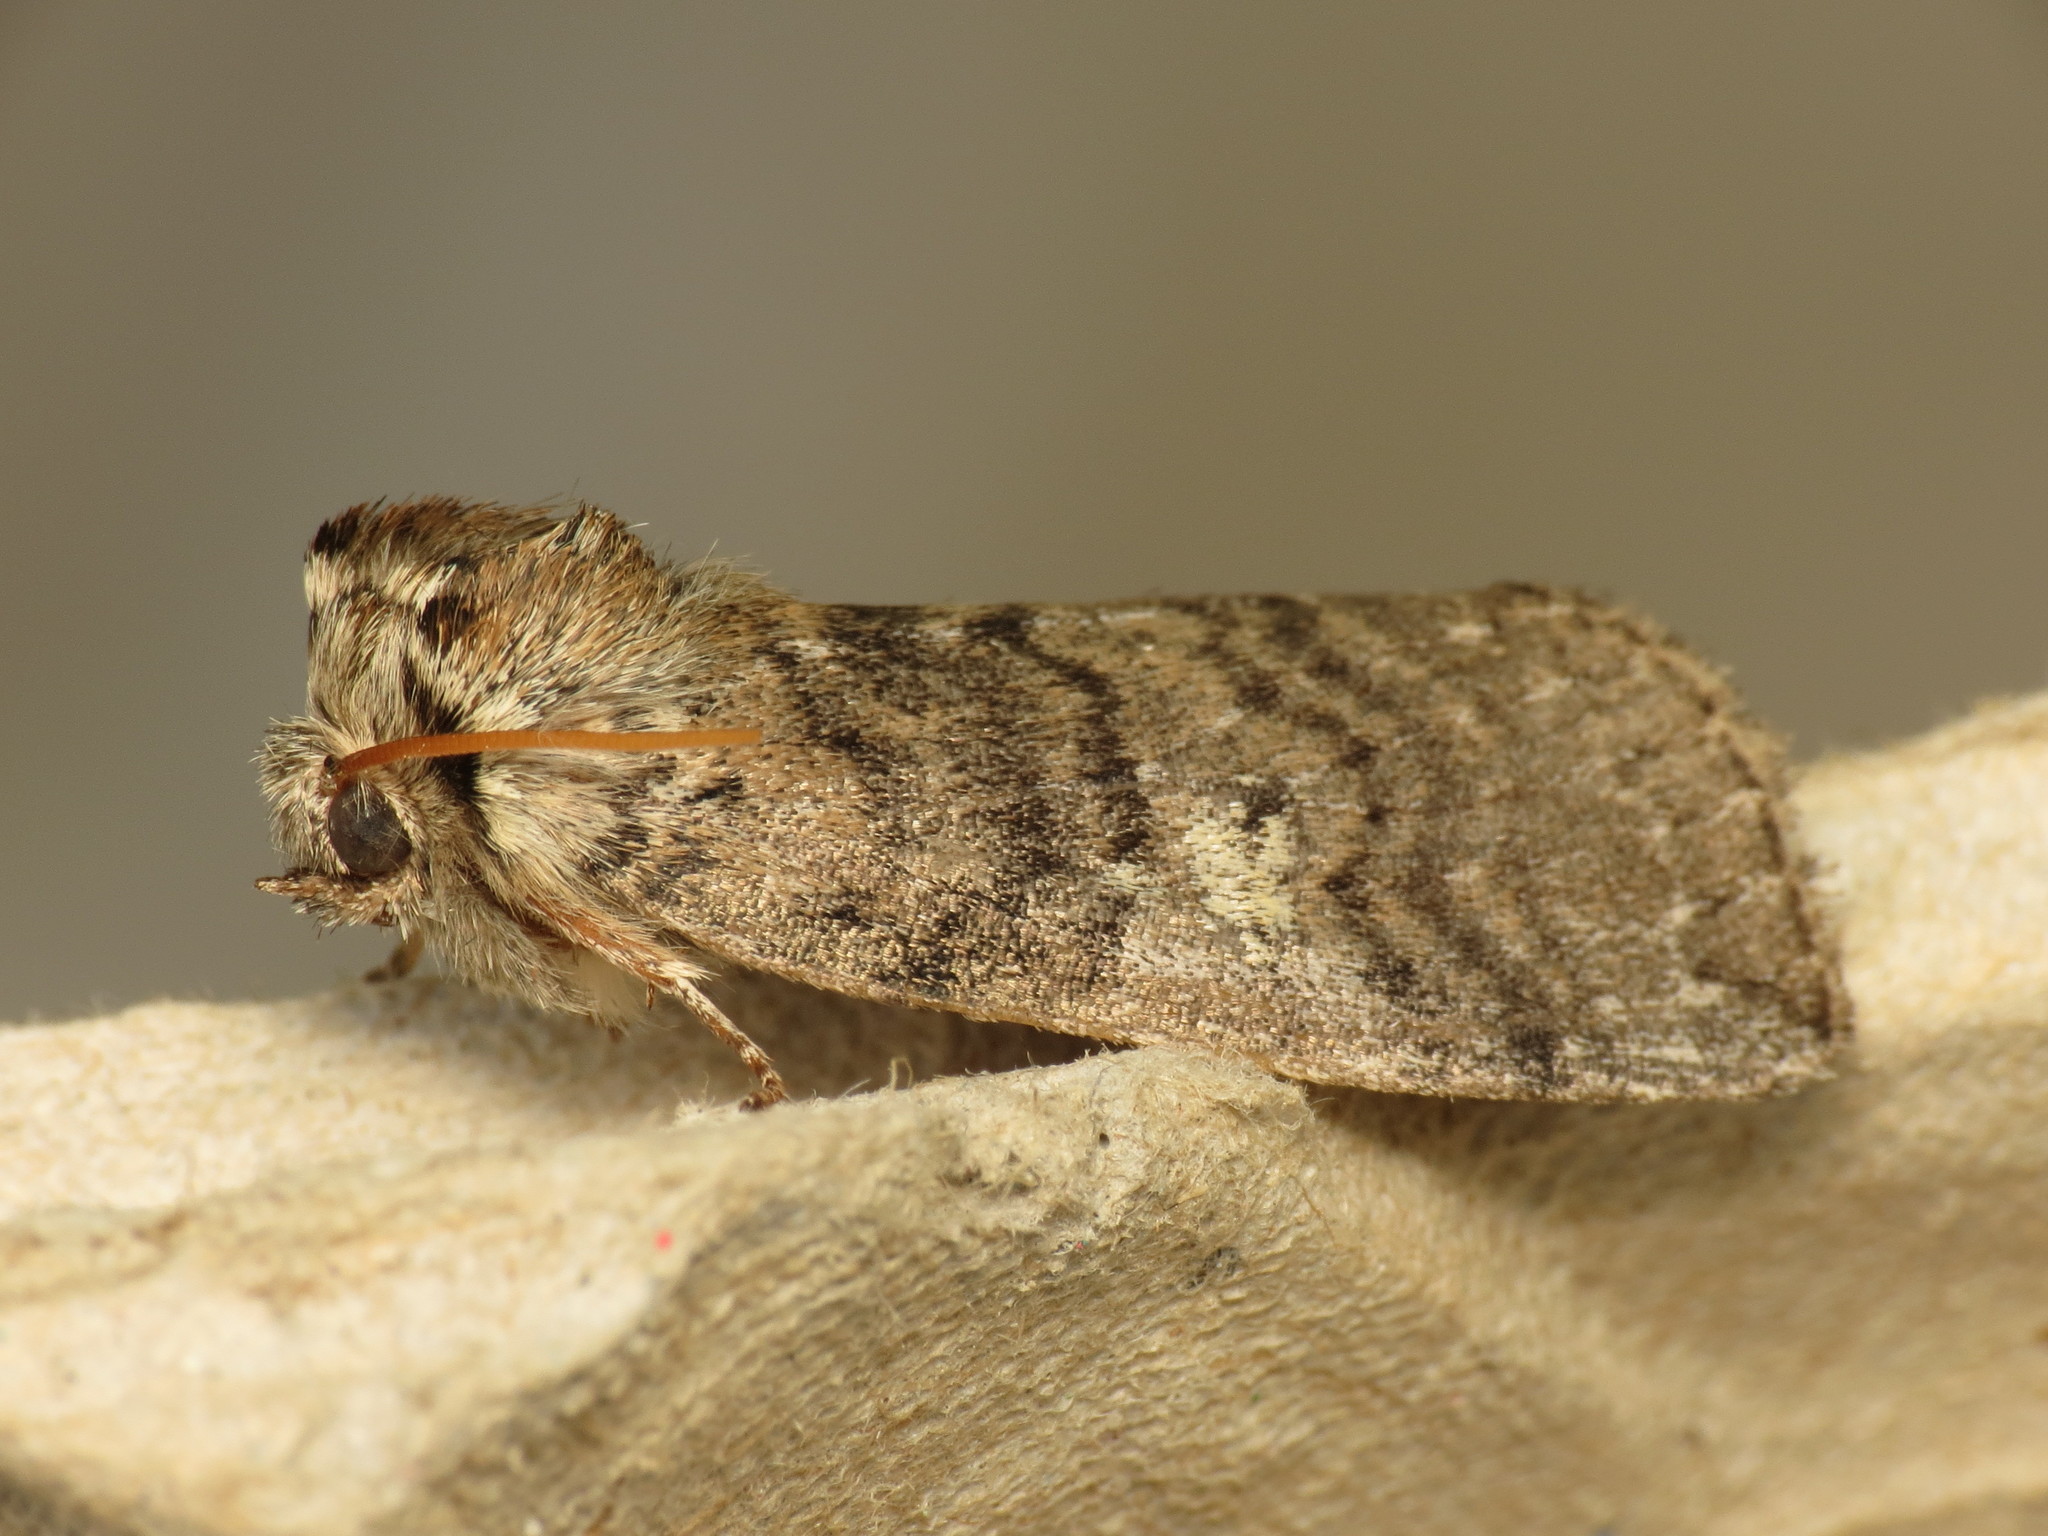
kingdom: Animalia
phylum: Arthropoda
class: Insecta
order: Lepidoptera
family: Drepanidae
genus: Tethea
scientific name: Tethea or
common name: Poplar lutestring
